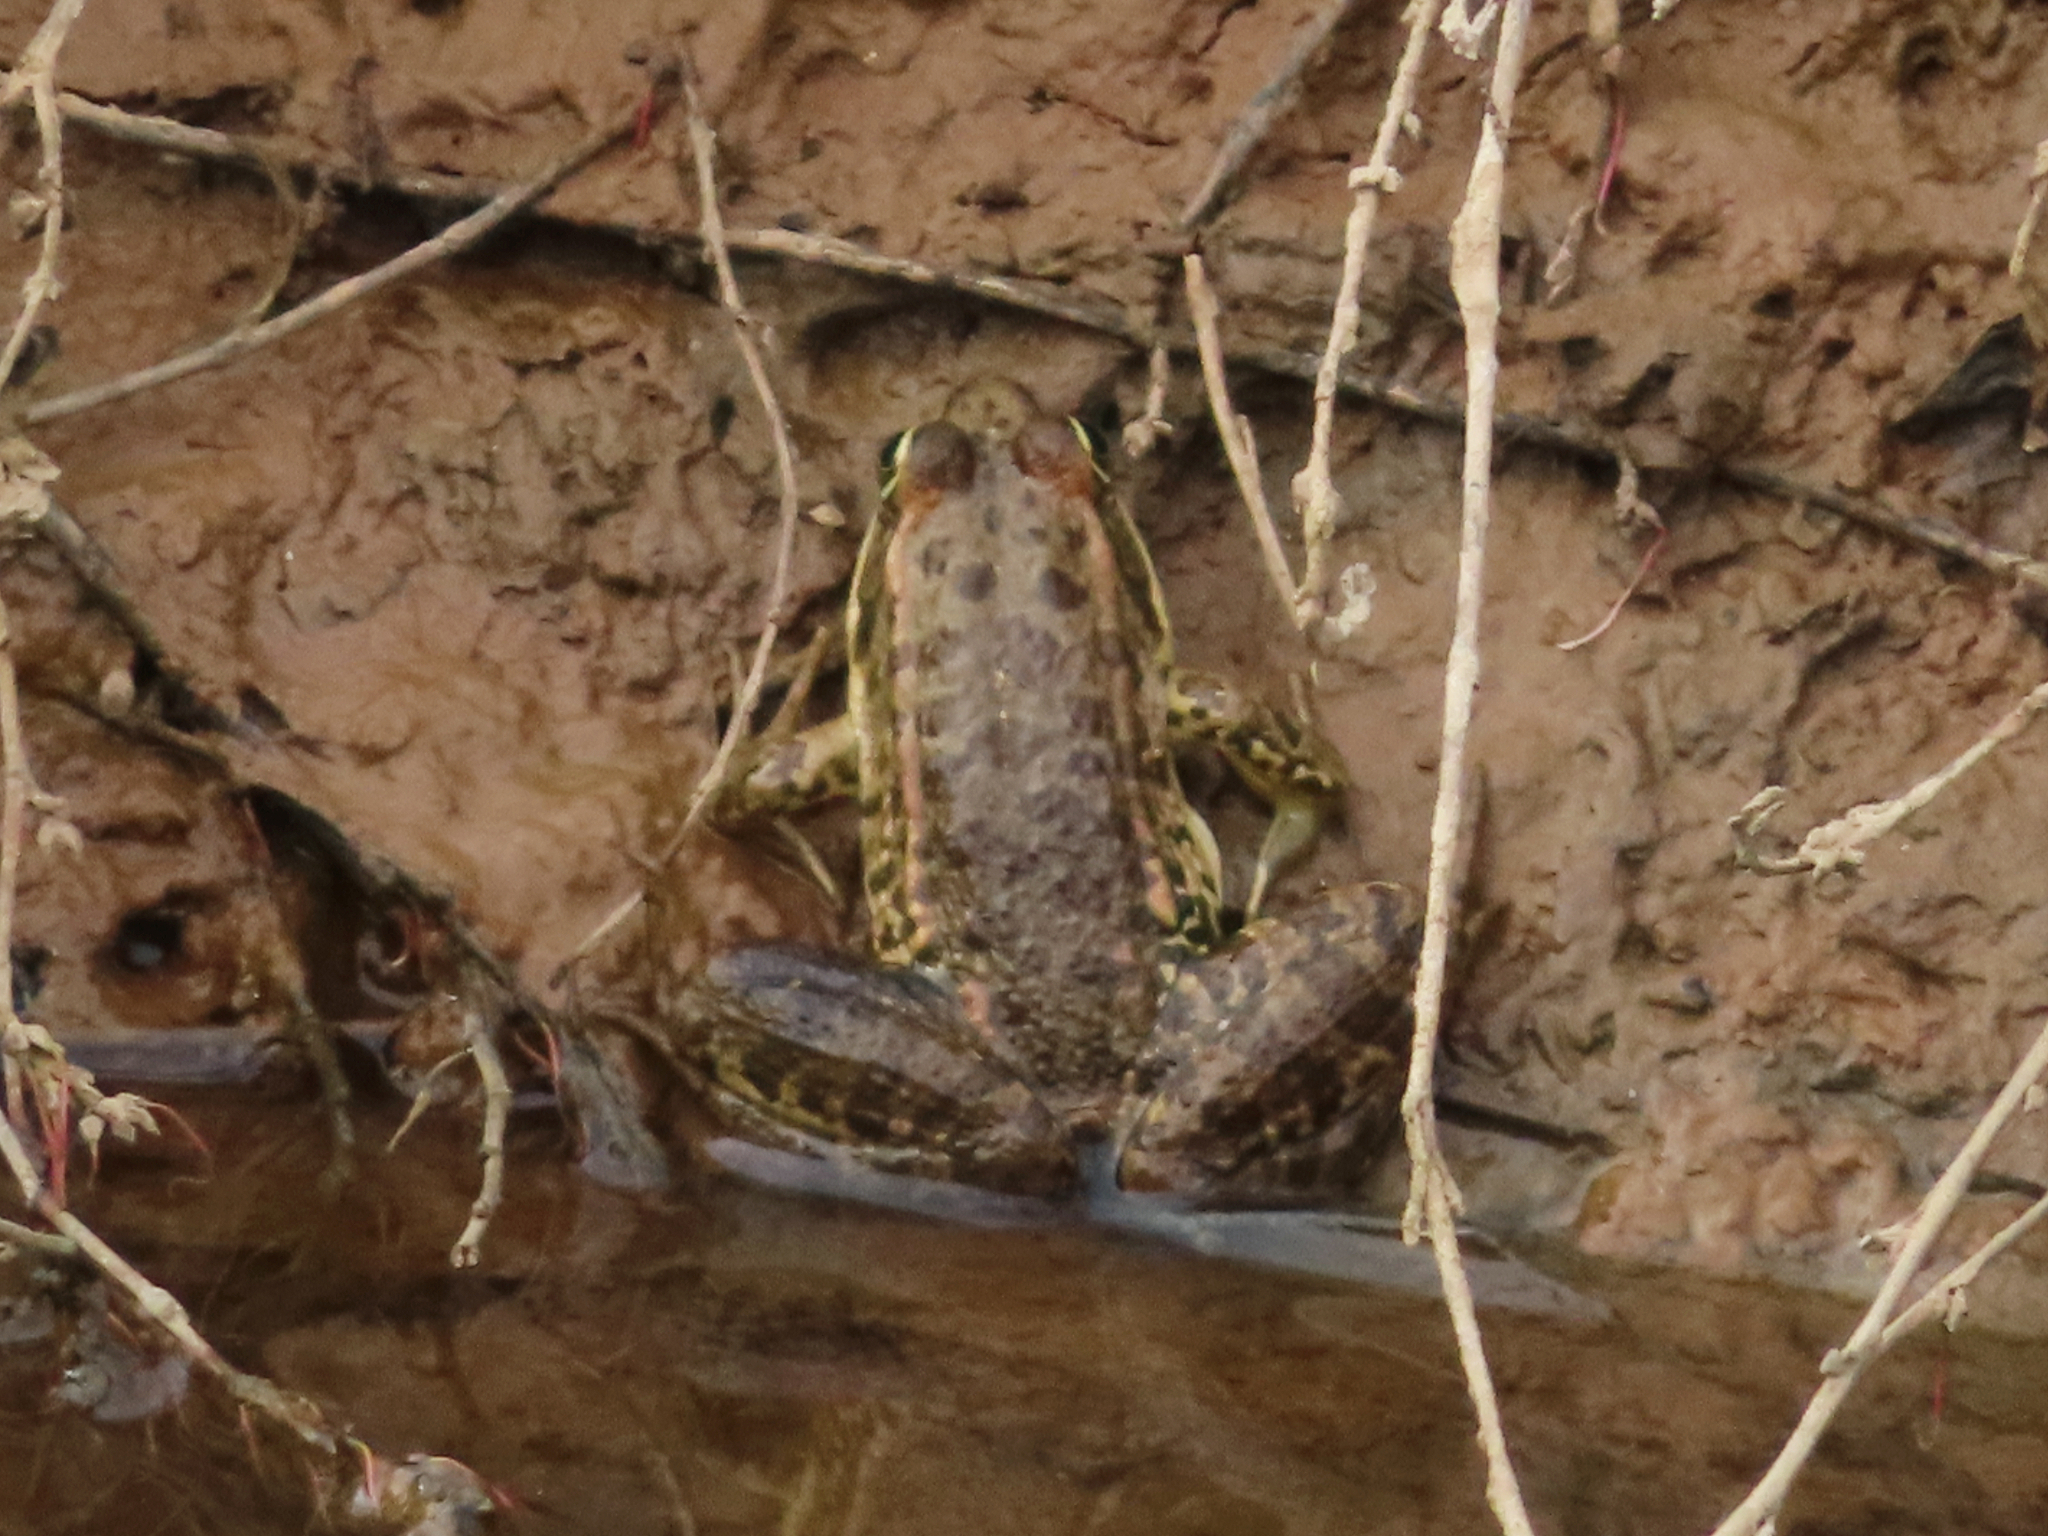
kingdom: Animalia
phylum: Chordata
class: Amphibia
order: Anura
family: Ranidae
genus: Pelophylax
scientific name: Pelophylax ridibundus
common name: Marsh frog
